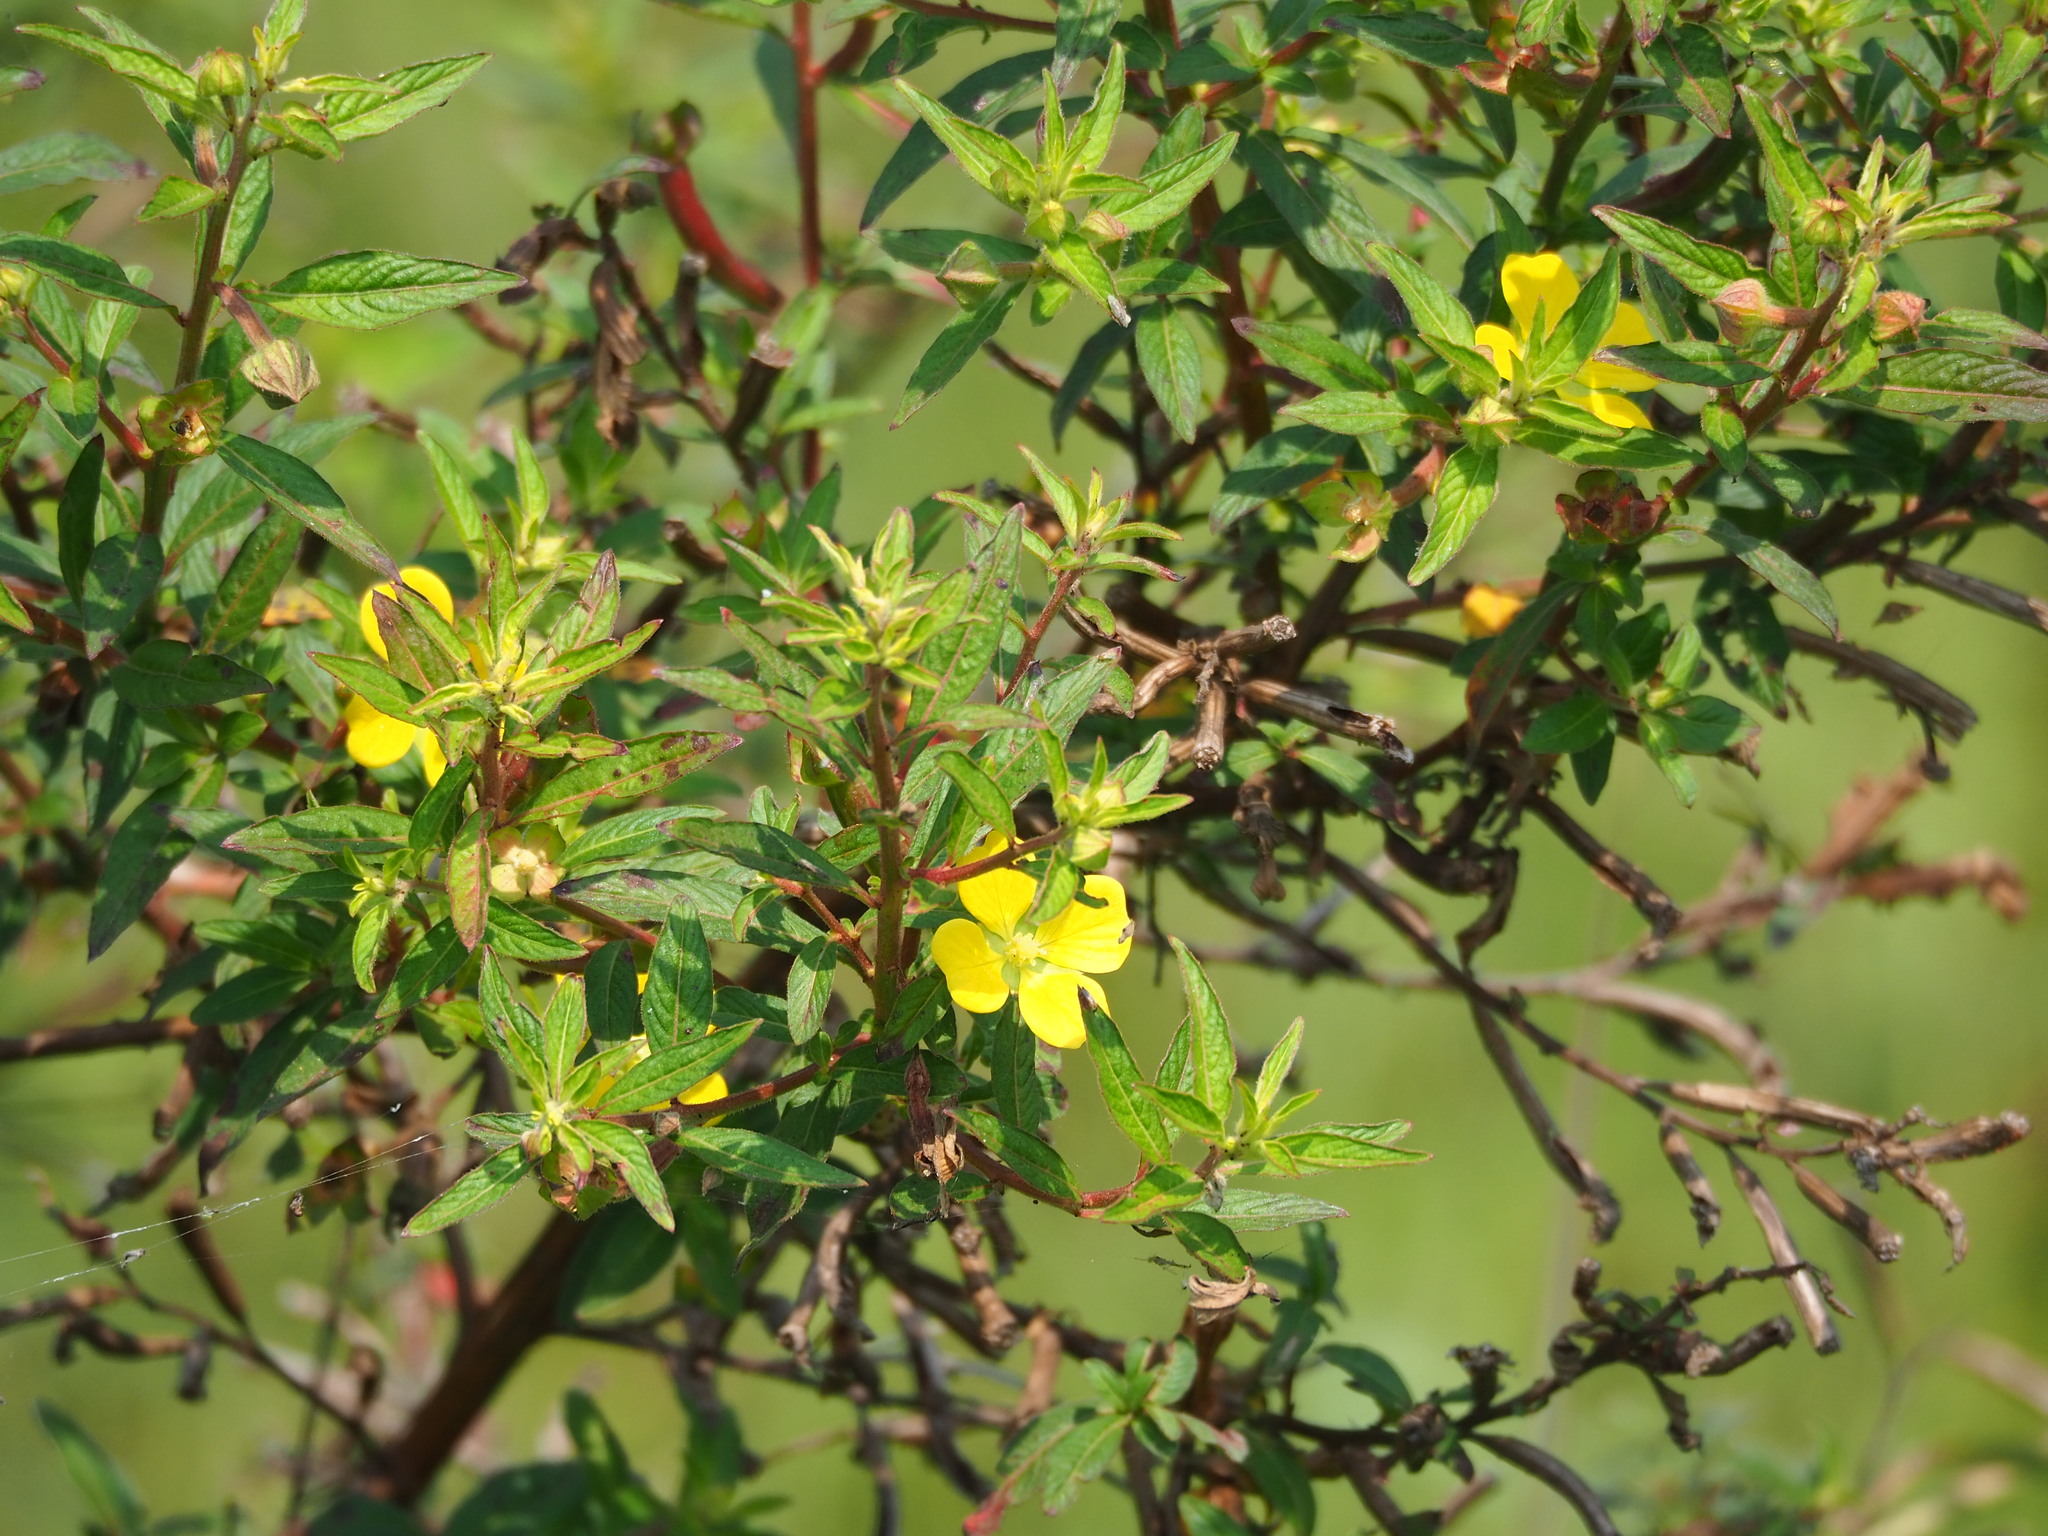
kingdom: Plantae
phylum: Tracheophyta
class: Magnoliopsida
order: Myrtales
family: Onagraceae
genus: Ludwigia
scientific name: Ludwigia octovalvis
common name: Water-primrose
